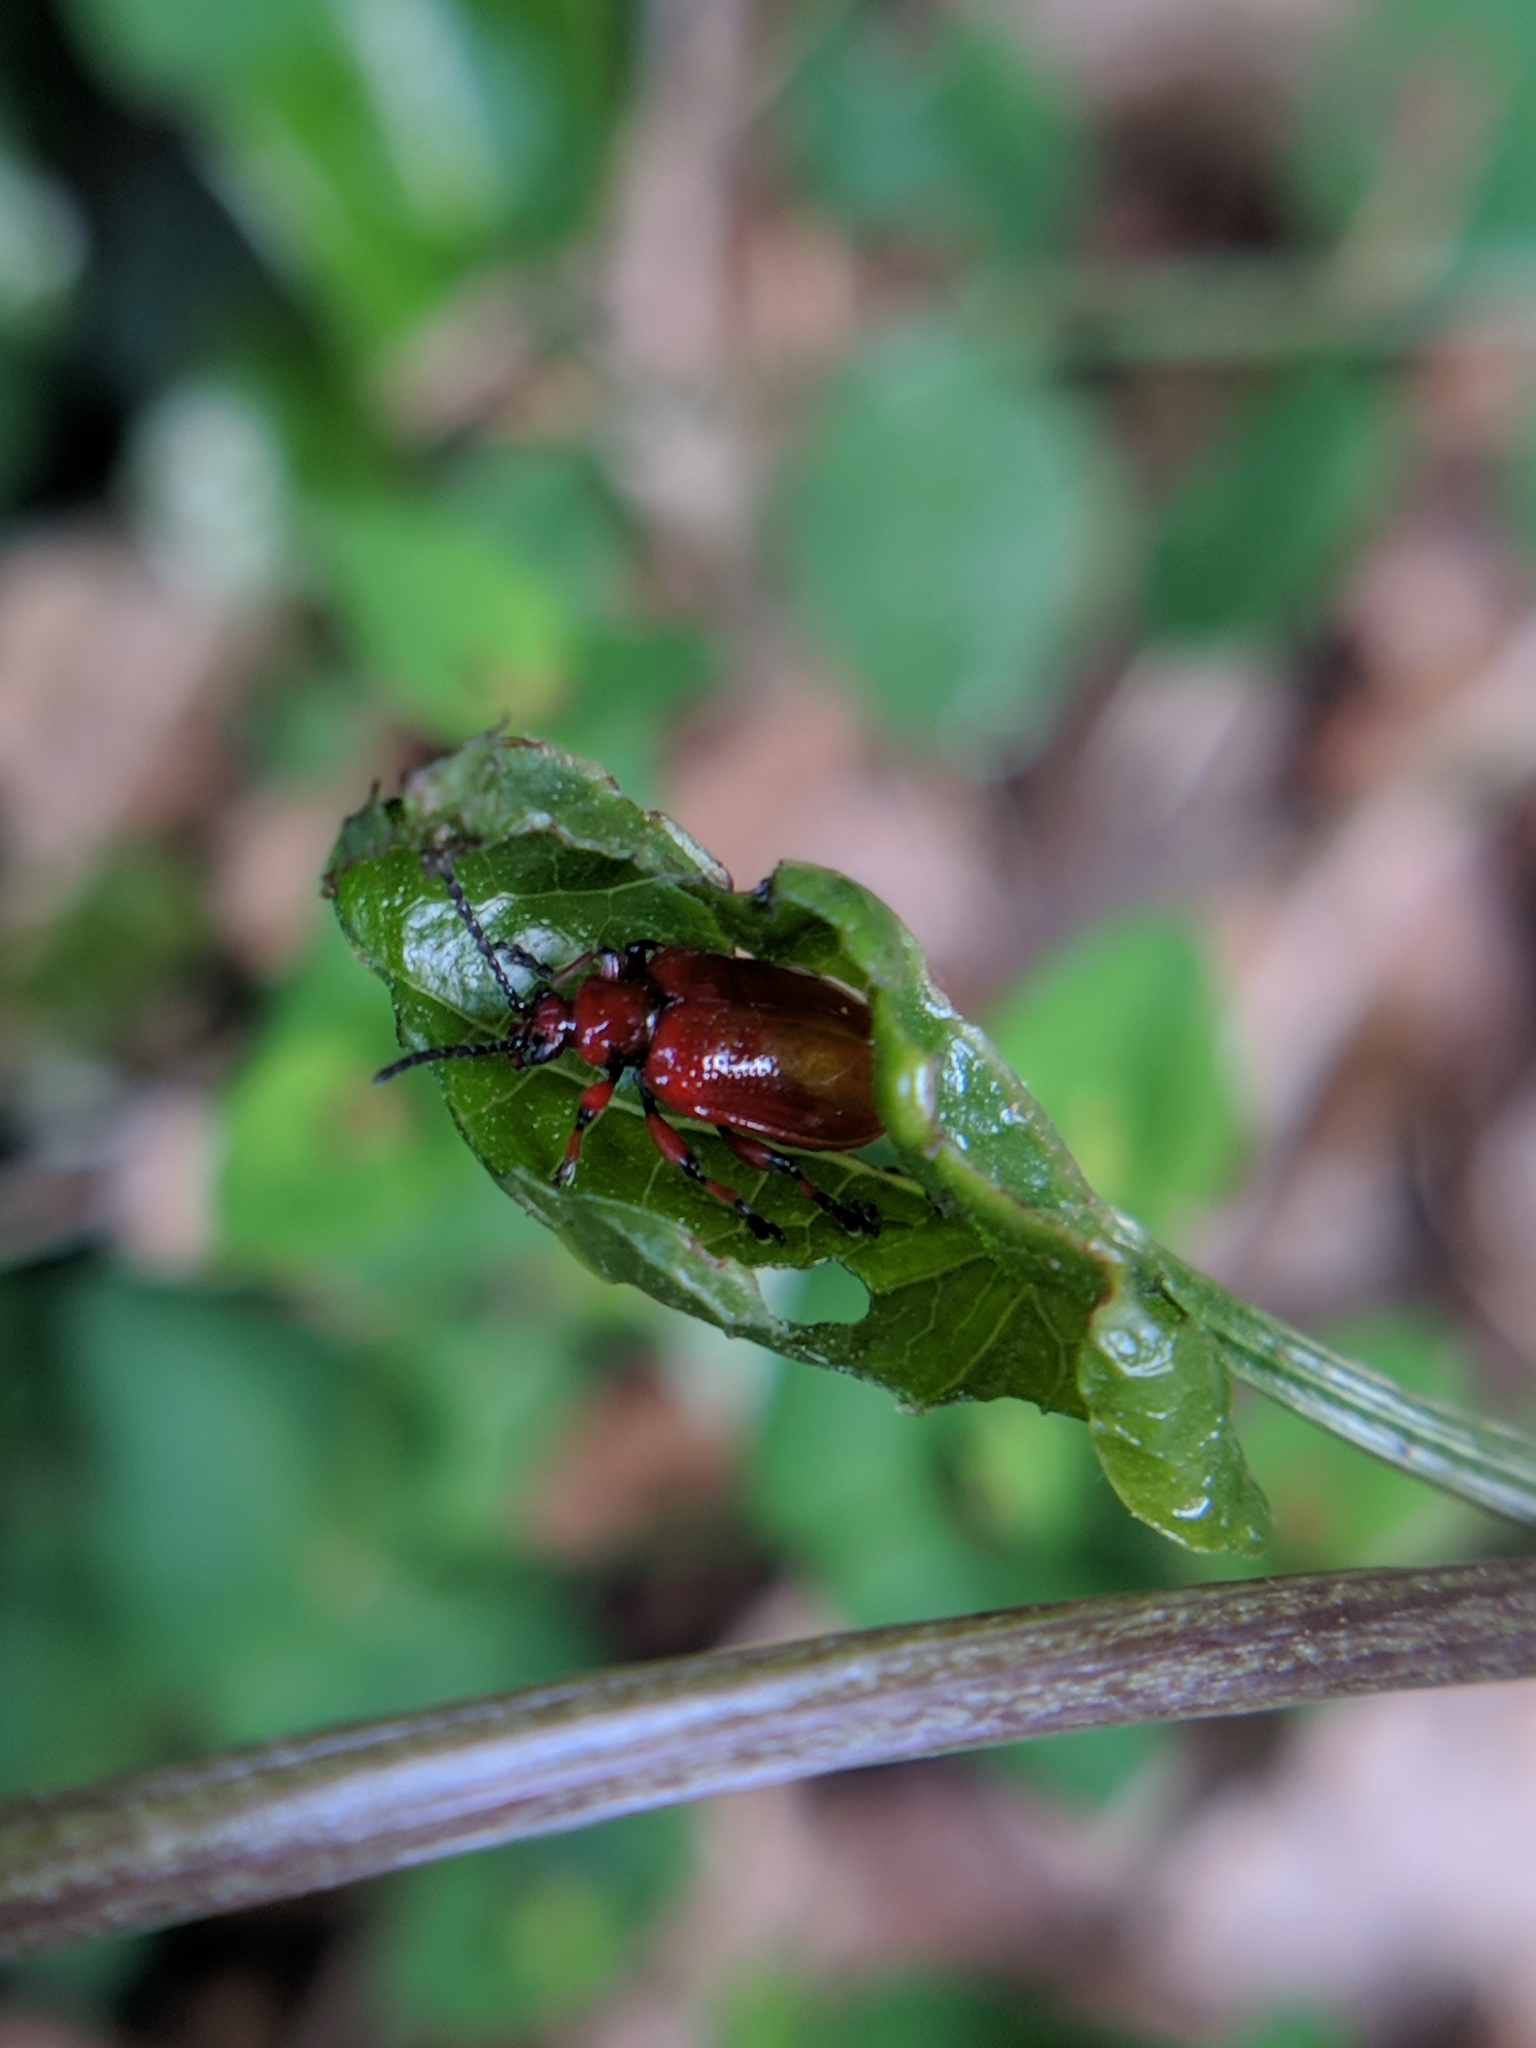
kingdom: Animalia
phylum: Arthropoda
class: Insecta
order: Coleoptera
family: Chrysomelidae
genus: Lilioceris
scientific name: Lilioceris merdigera
